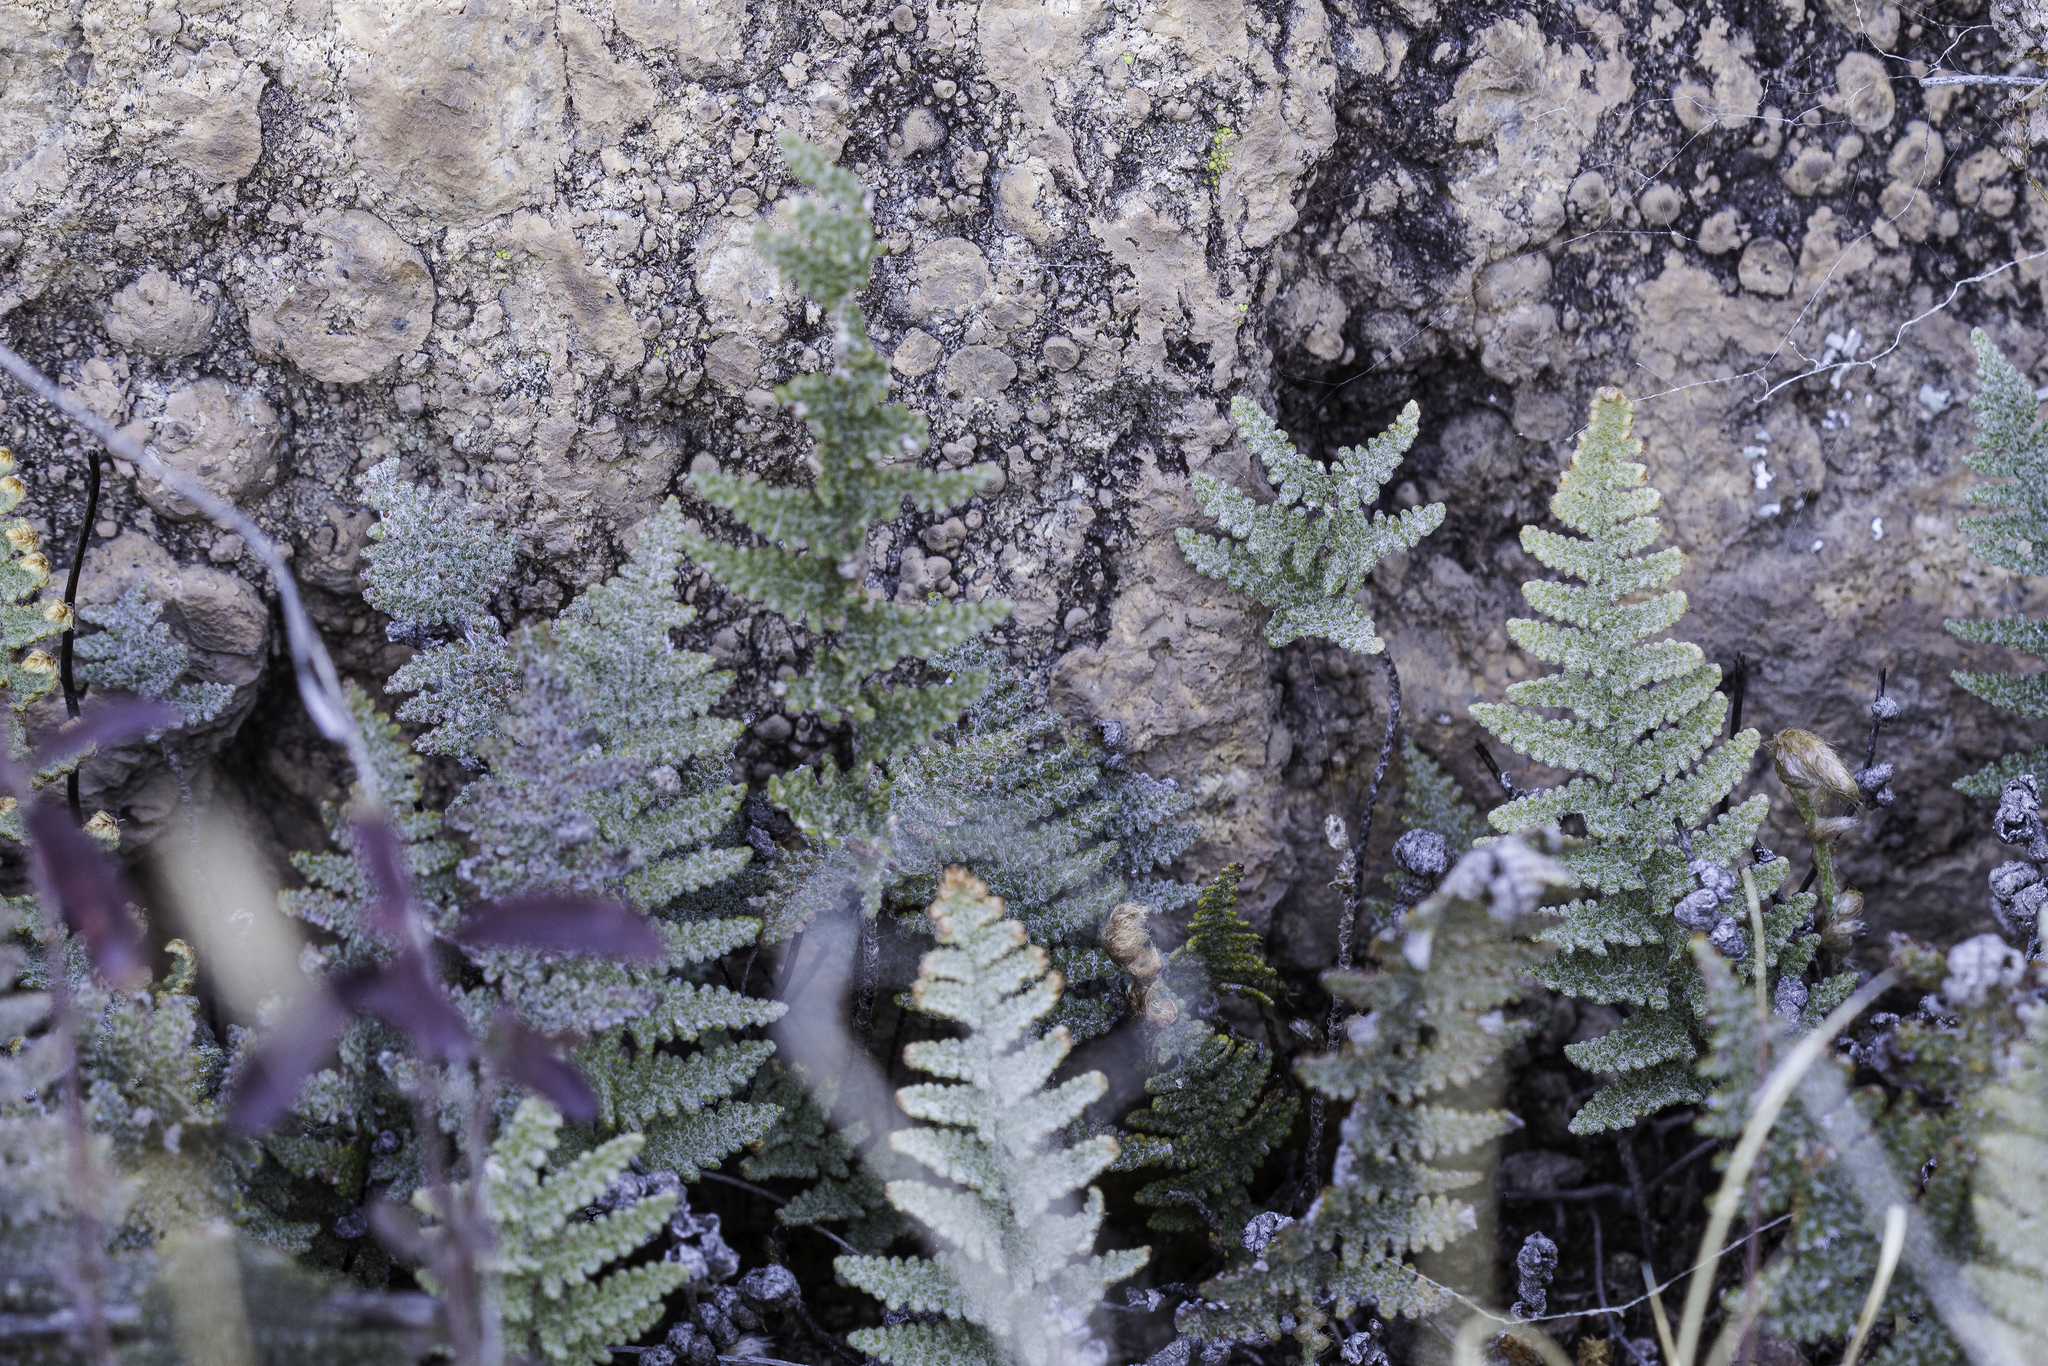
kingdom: Plantae
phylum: Tracheophyta
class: Polypodiopsida
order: Polypodiales
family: Pteridaceae
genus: Myriopteris
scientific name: Myriopteris lindheimeri
